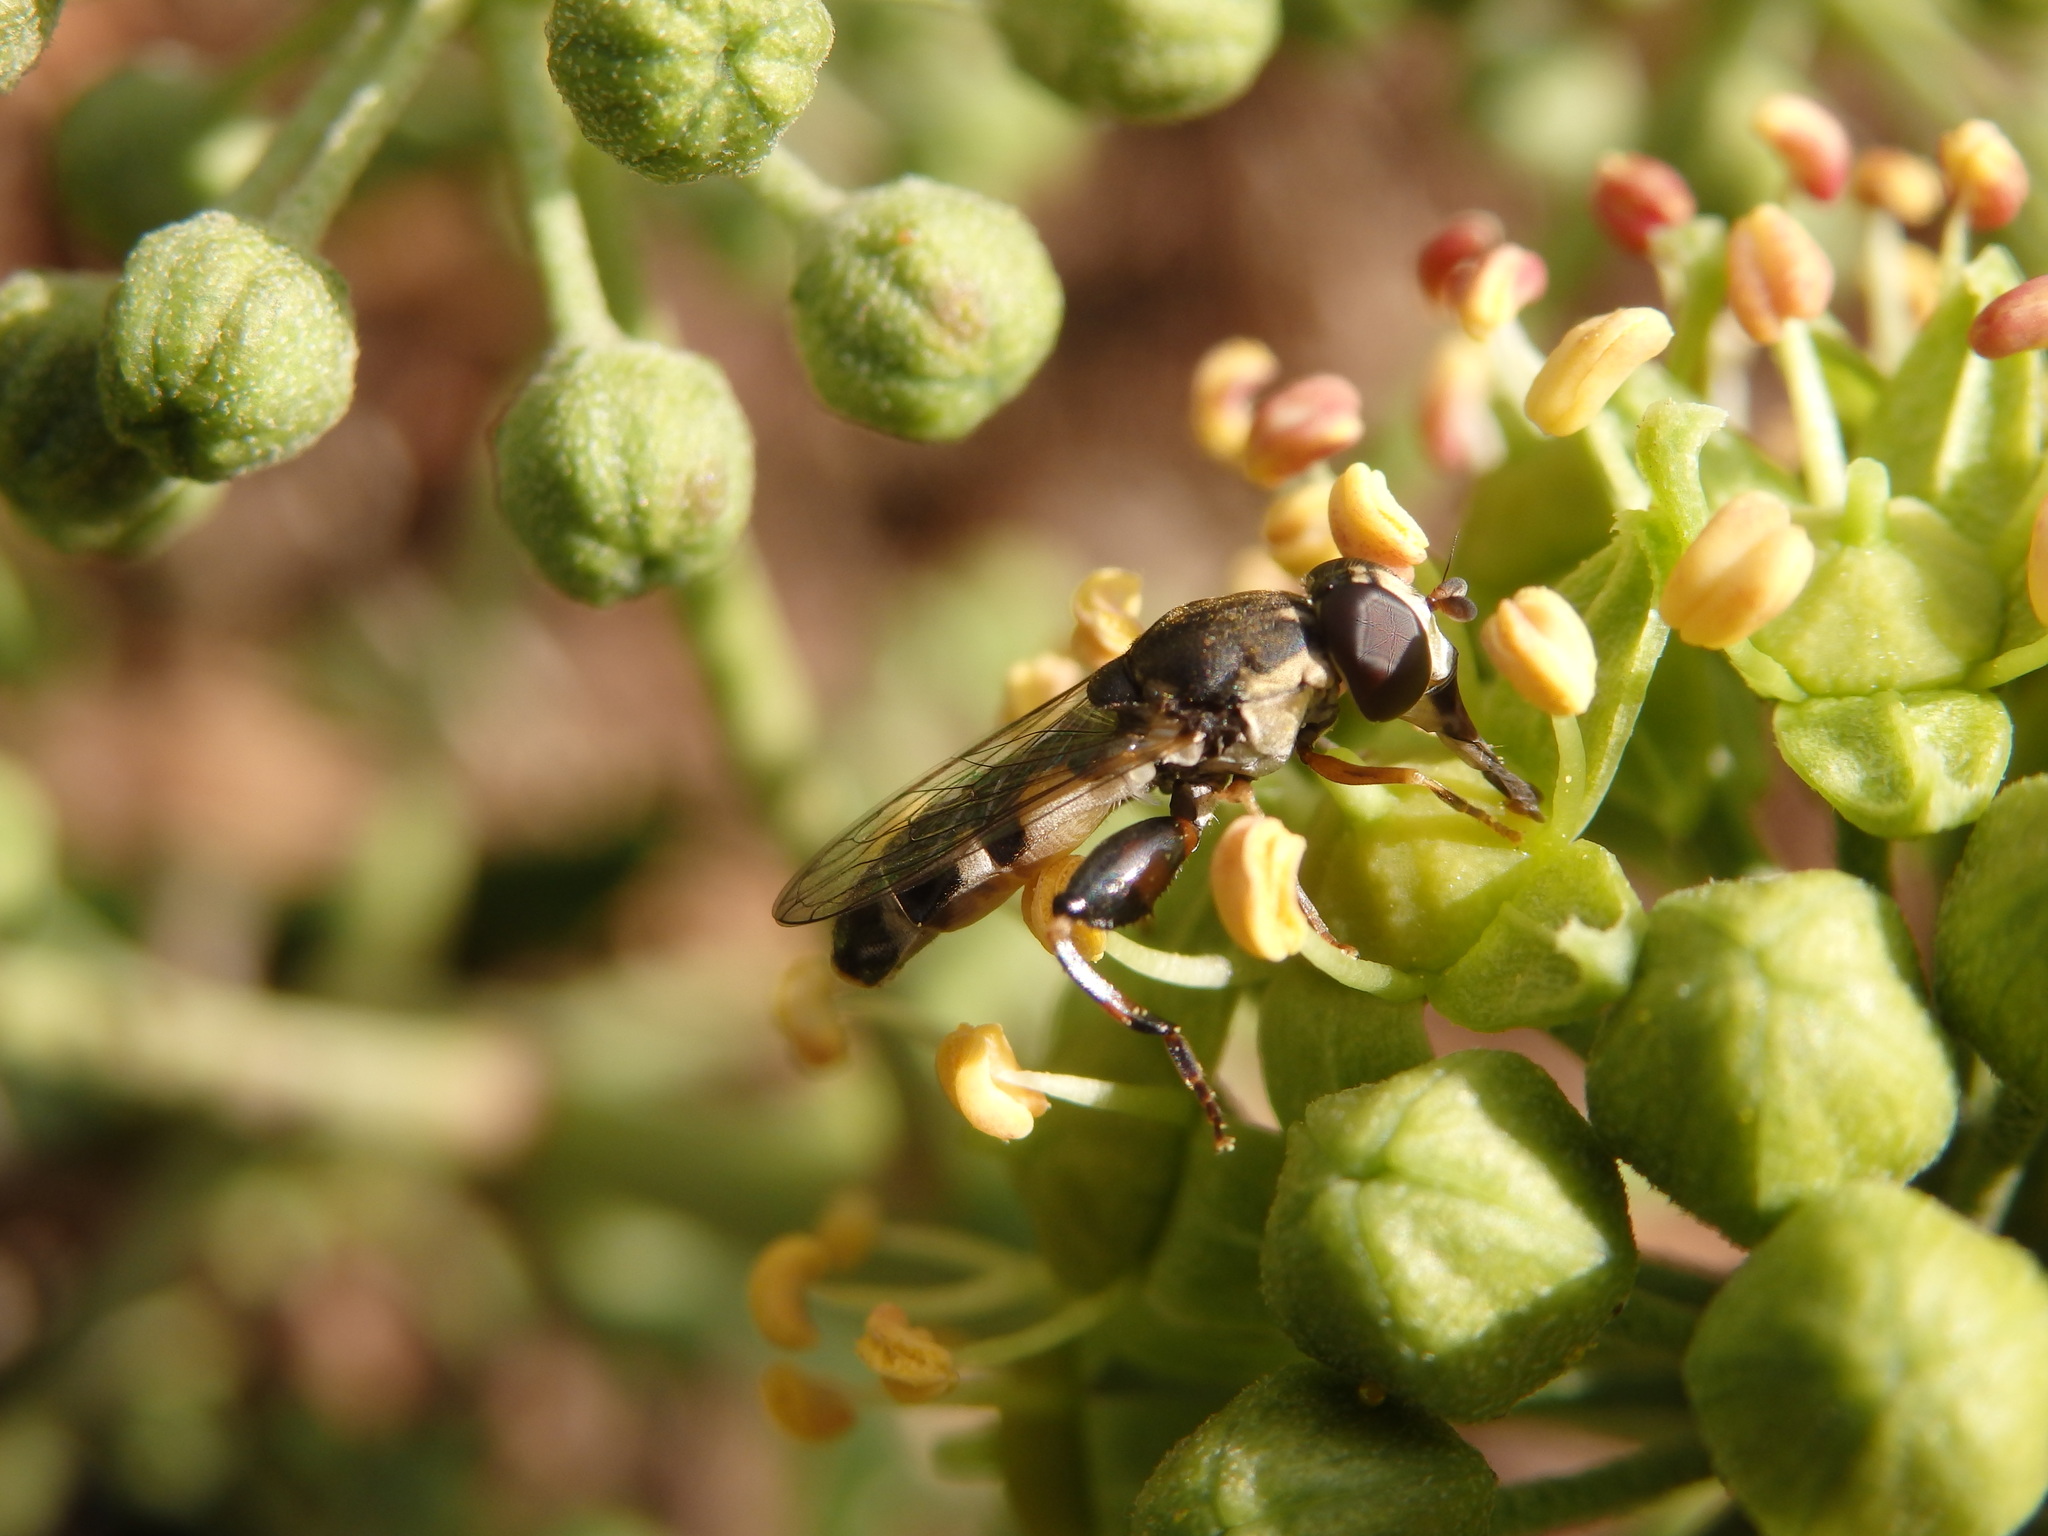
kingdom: Animalia
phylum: Arthropoda
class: Insecta
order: Diptera
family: Syrphidae
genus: Syritta
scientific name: Syritta pipiens
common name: Hover fly
